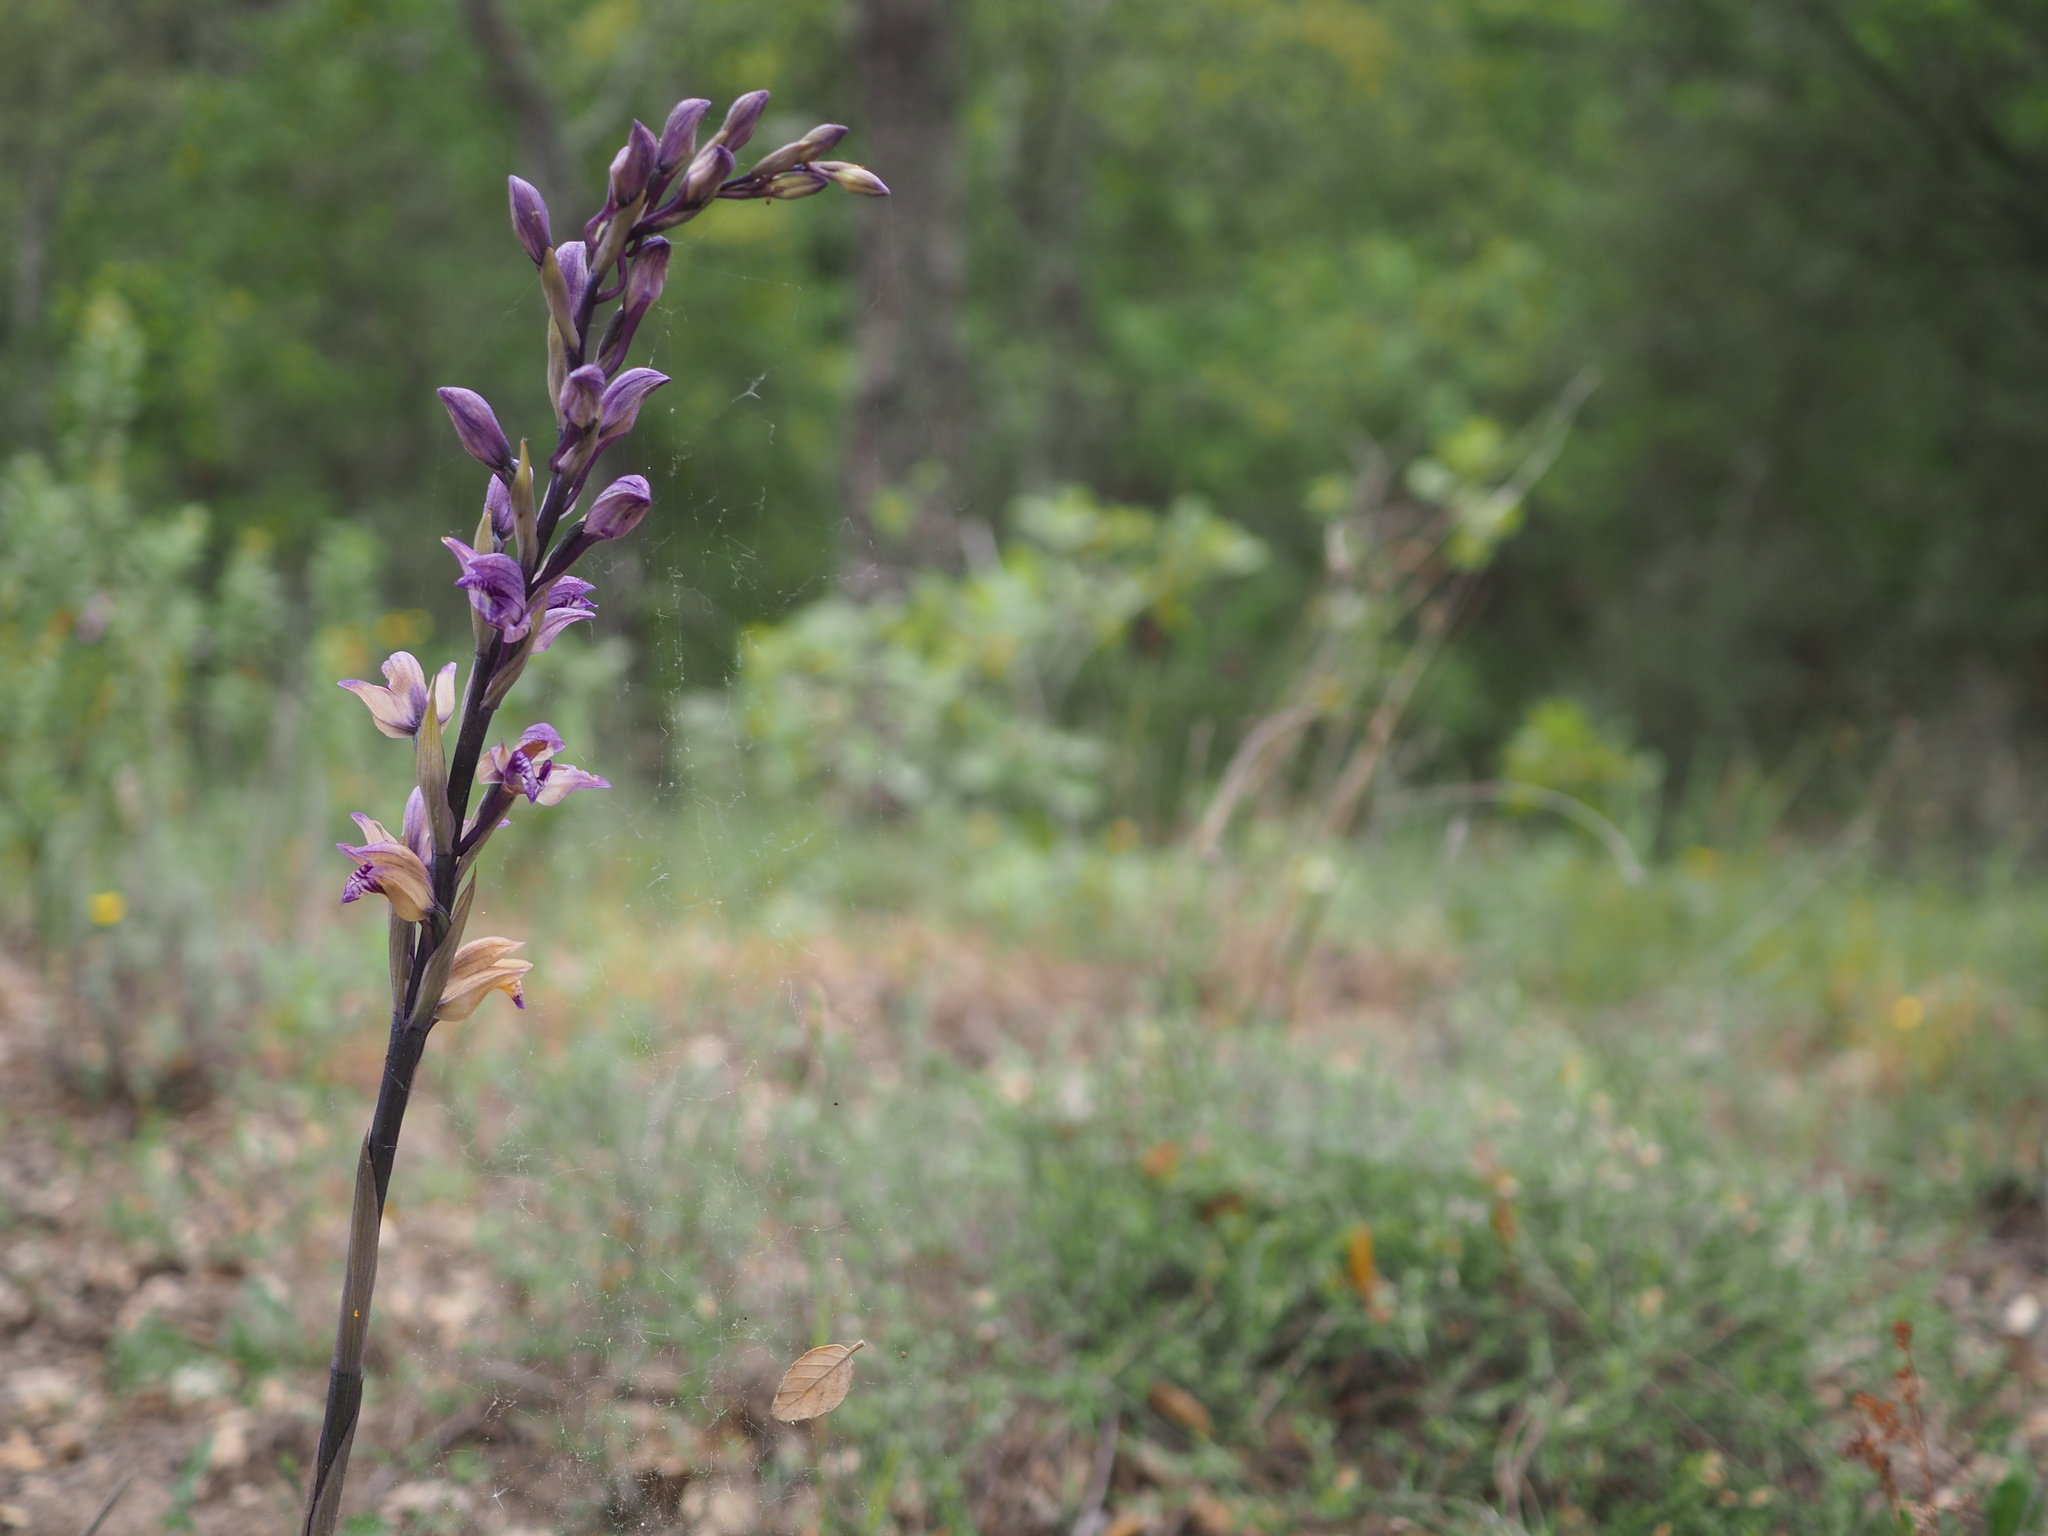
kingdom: Plantae
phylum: Tracheophyta
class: Liliopsida
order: Asparagales
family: Orchidaceae
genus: Limodorum
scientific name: Limodorum abortivum
